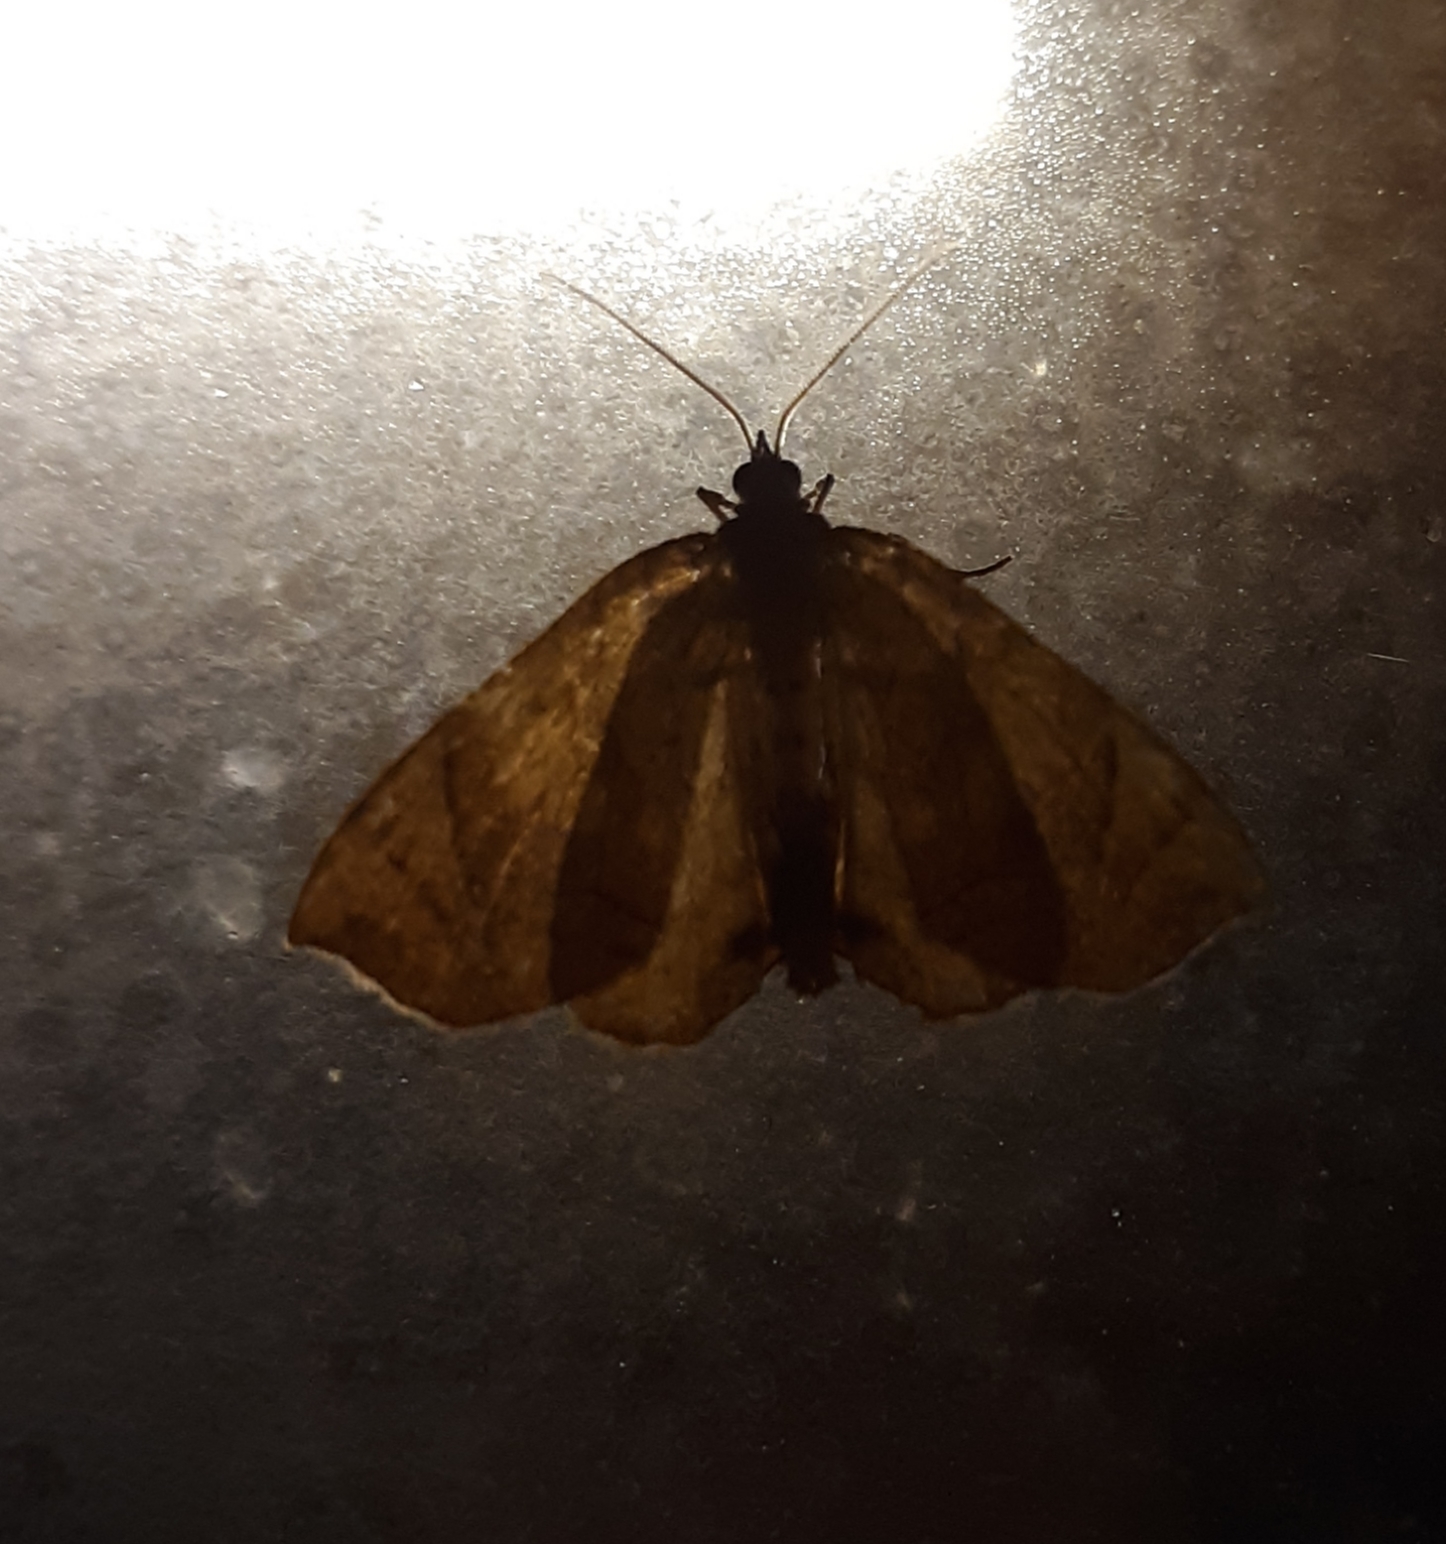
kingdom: Animalia
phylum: Arthropoda
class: Insecta
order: Lepidoptera
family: Geometridae
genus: Eulithis
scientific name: Eulithis
